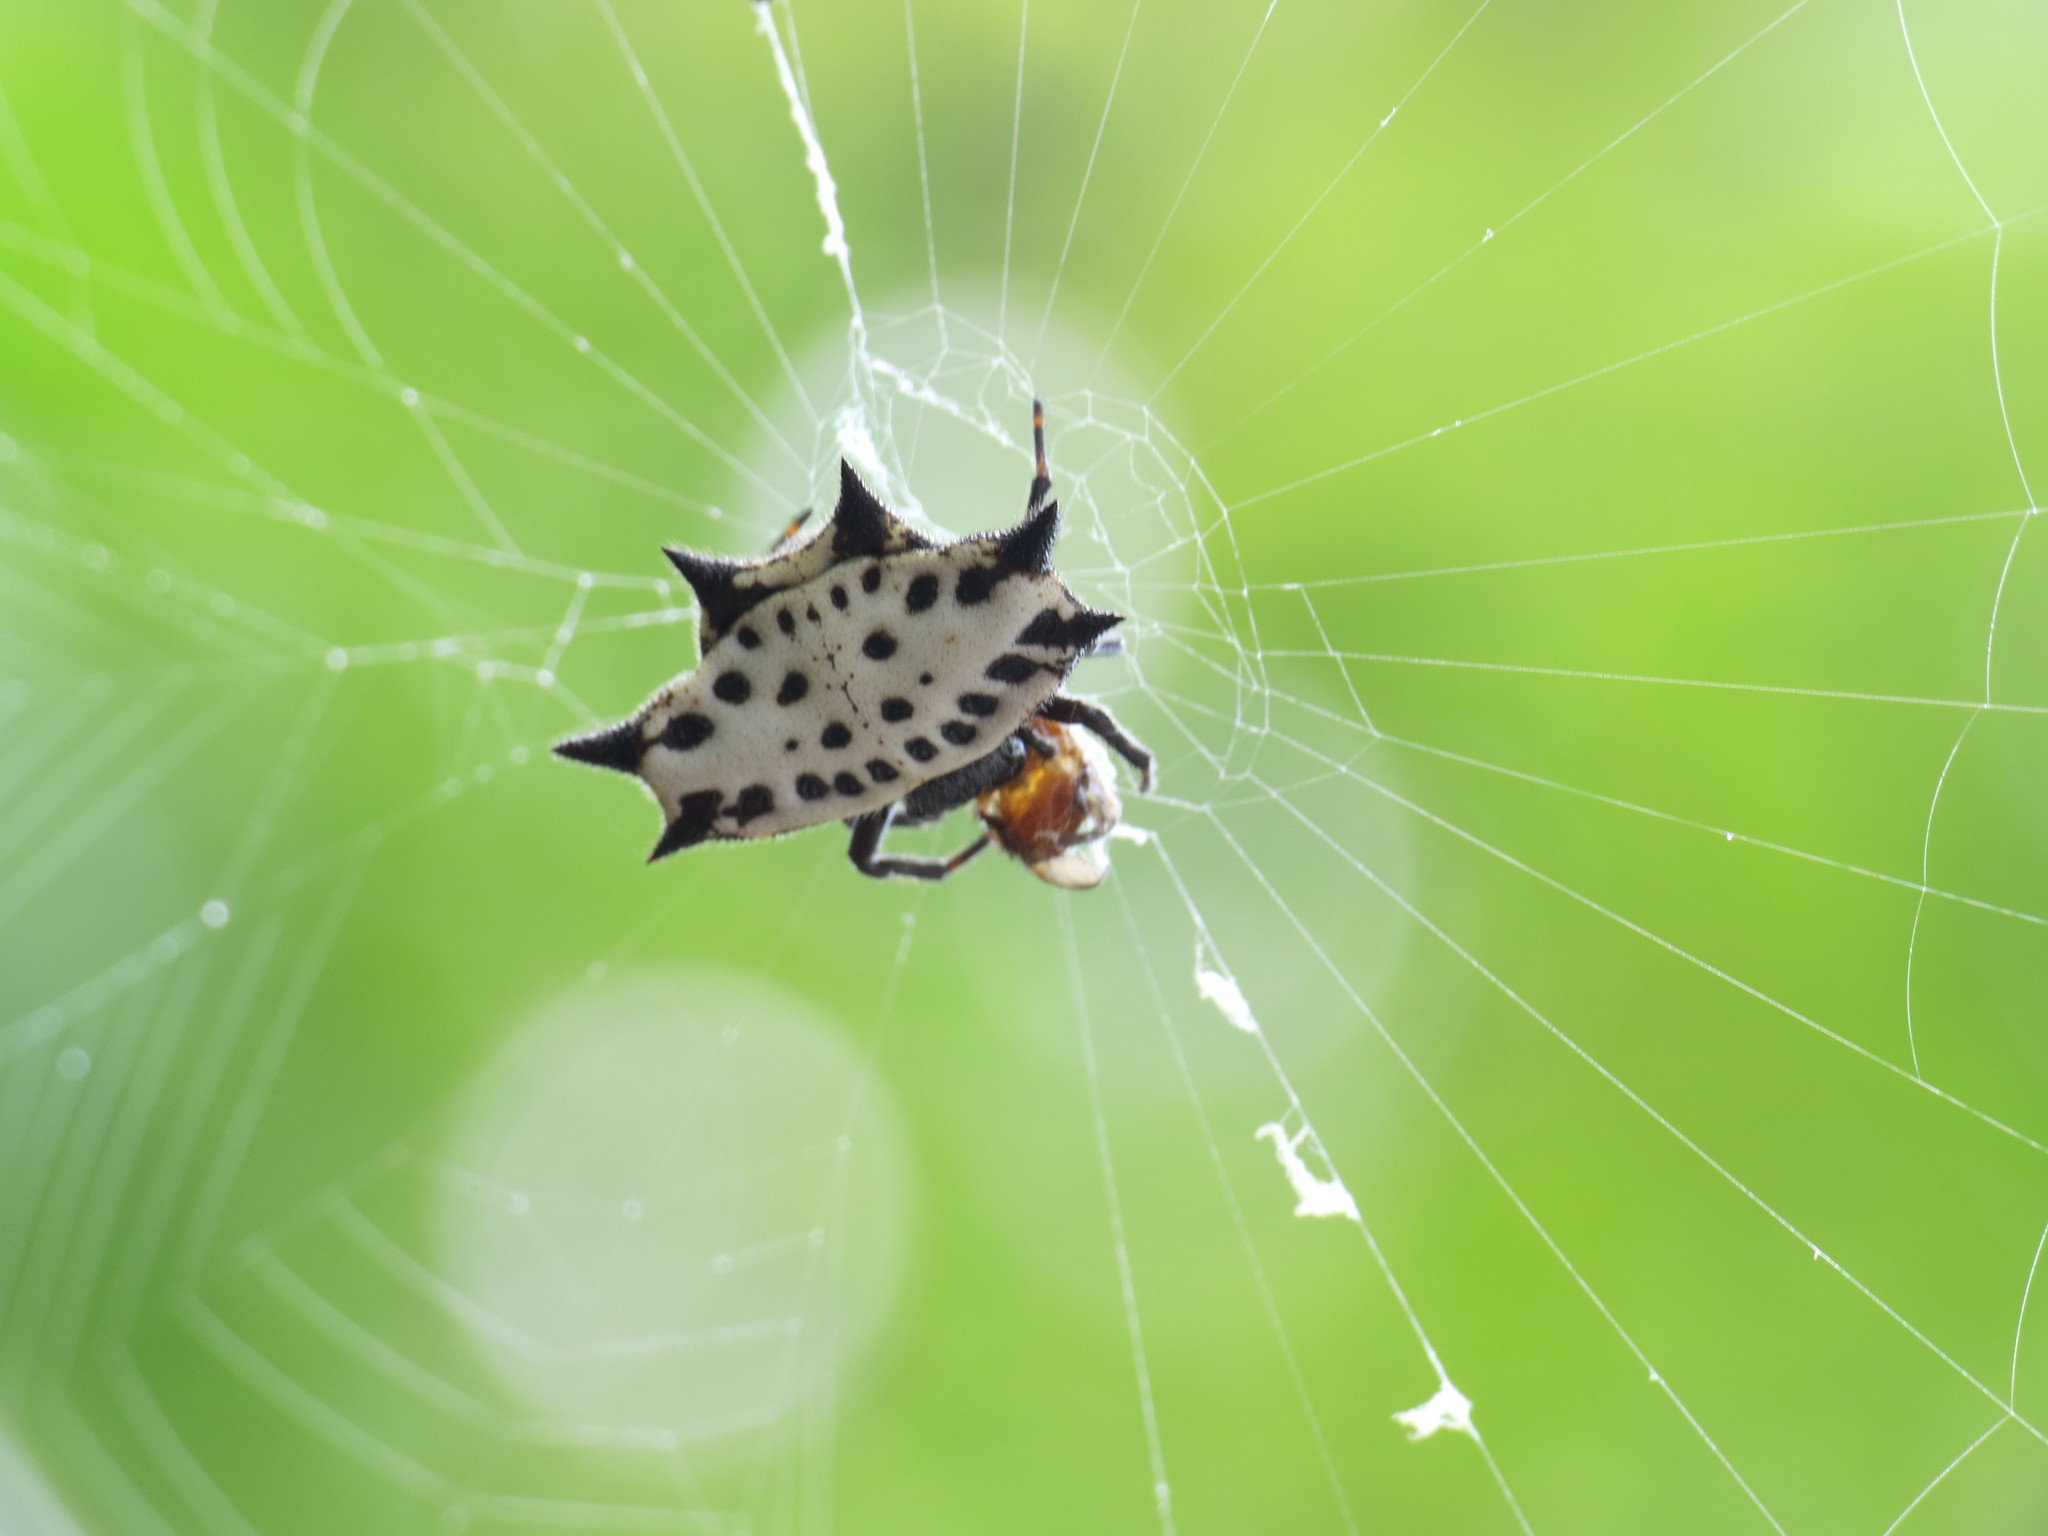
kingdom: Animalia
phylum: Arthropoda
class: Arachnida
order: Araneae
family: Araneidae
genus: Gasteracantha
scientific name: Gasteracantha cancriformis
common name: Orb weavers
